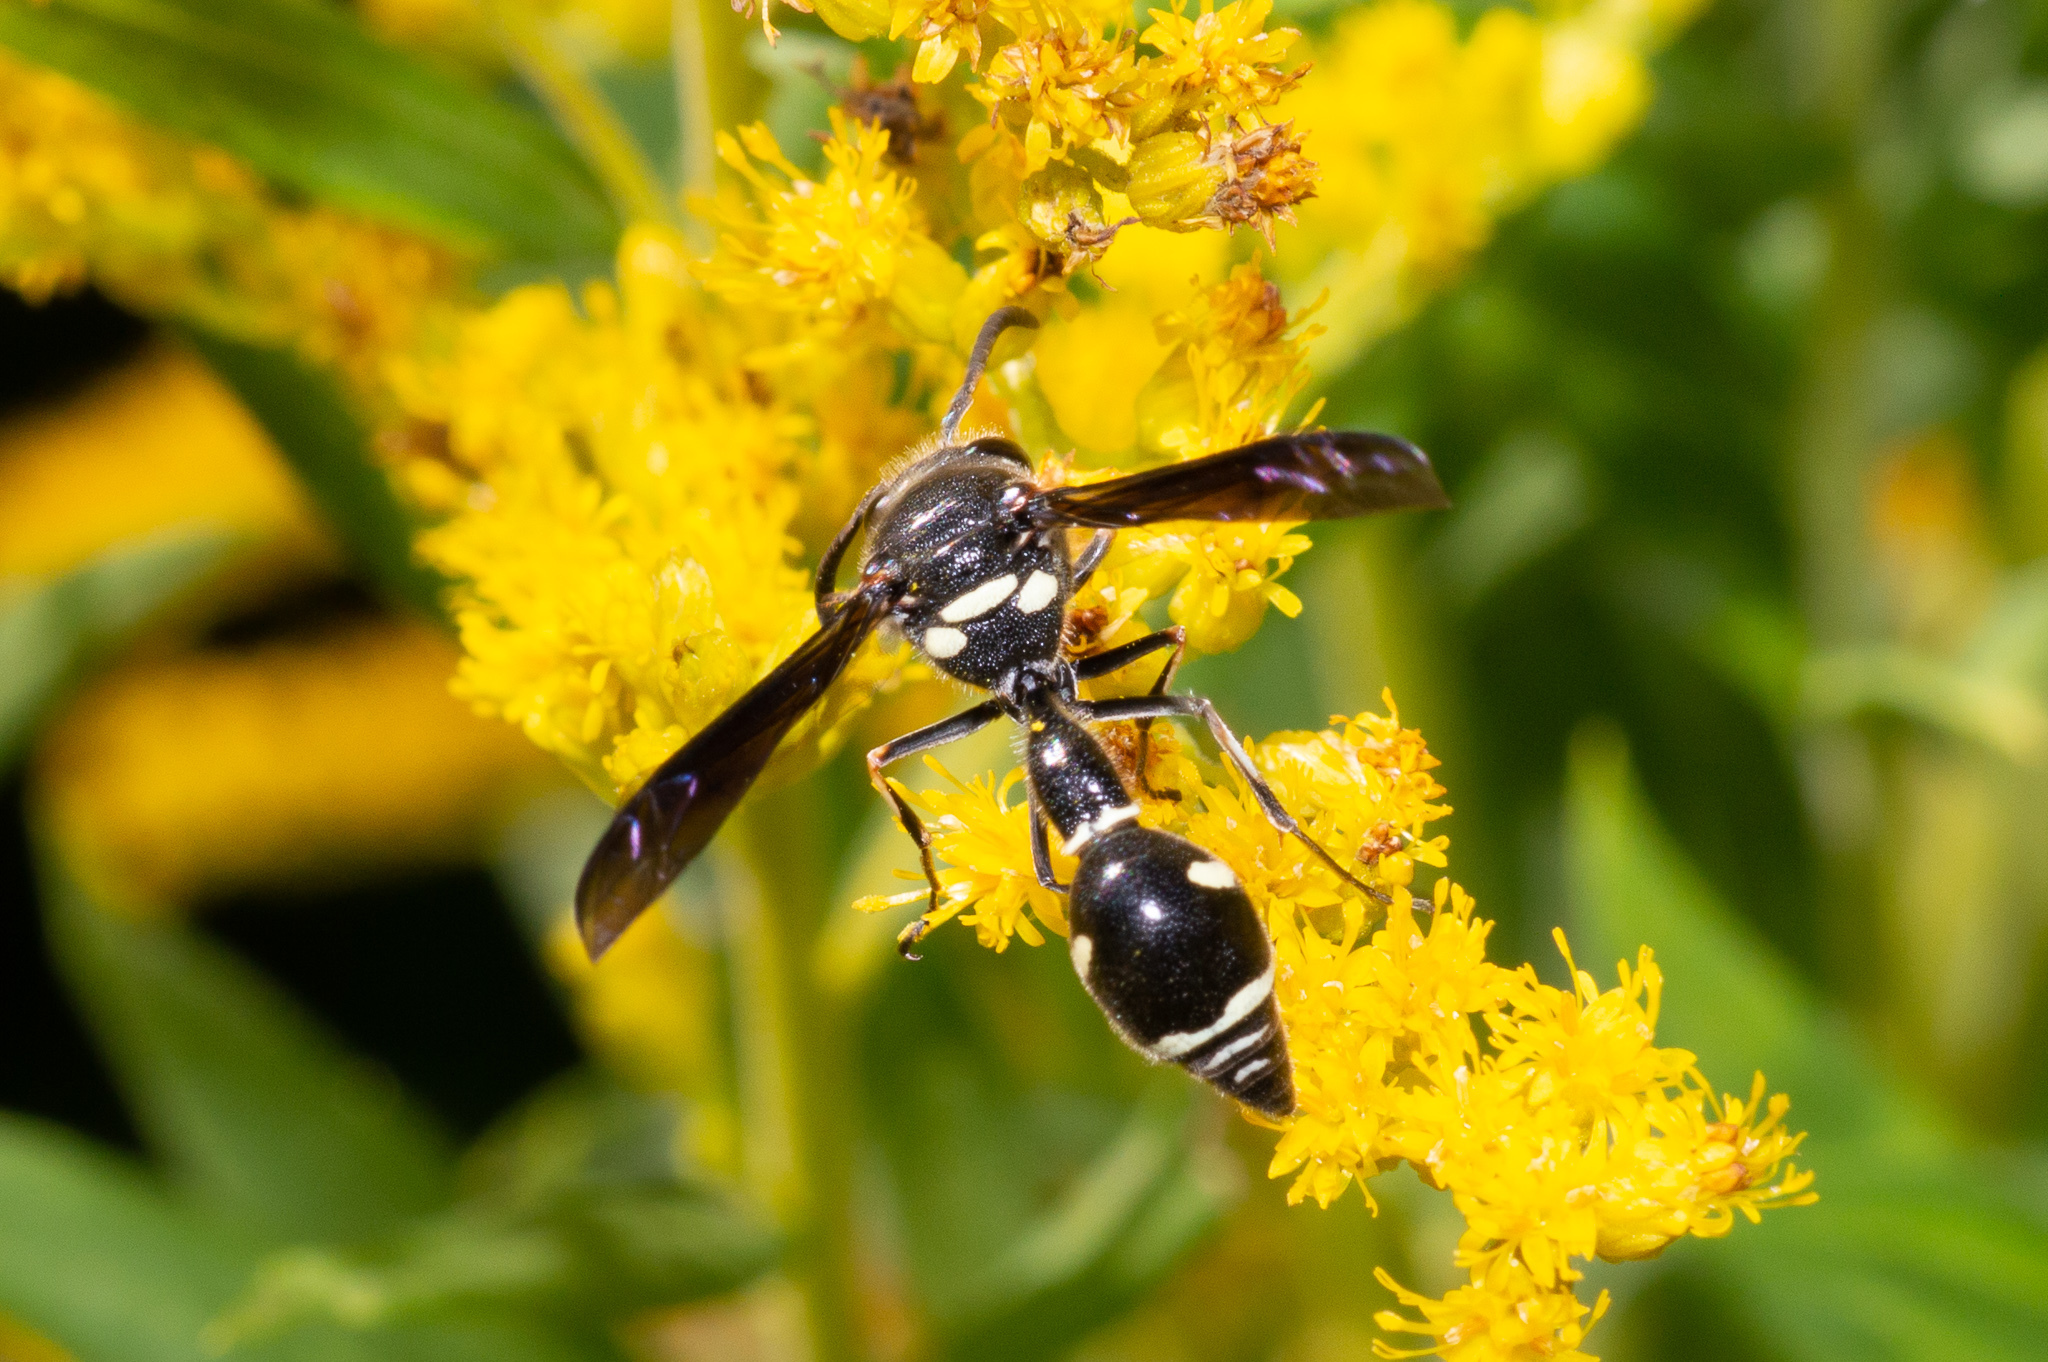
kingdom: Animalia
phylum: Arthropoda
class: Insecta
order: Hymenoptera
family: Vespidae
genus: Eumenes
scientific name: Eumenes fraternus
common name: Fraternal potter wasp
